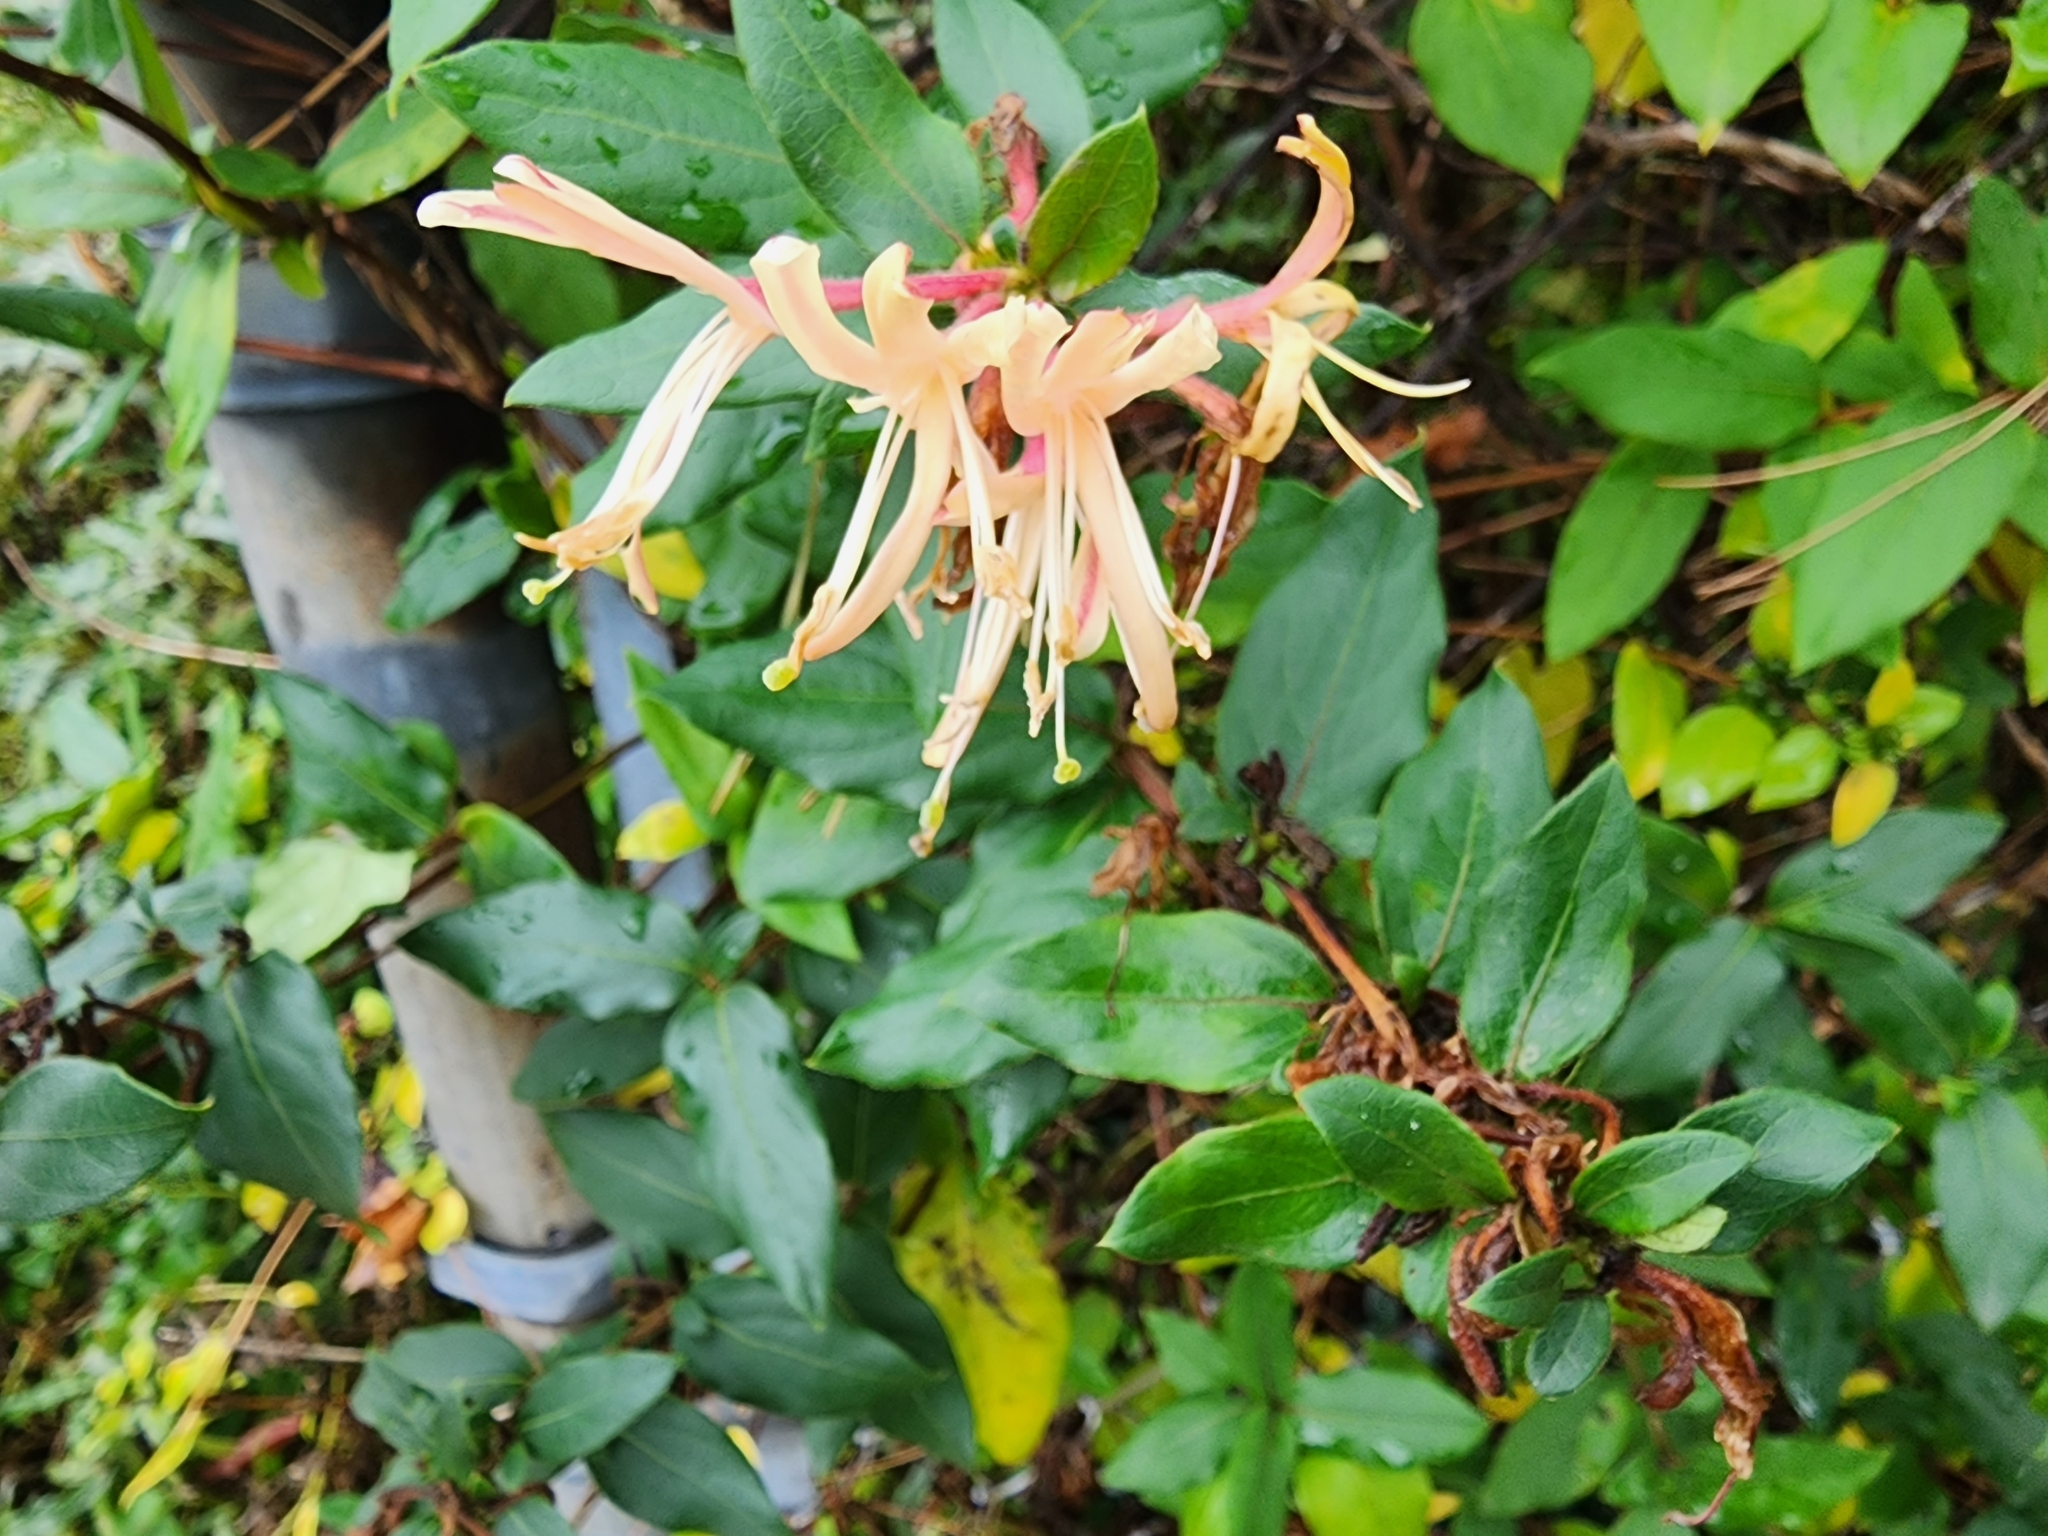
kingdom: Plantae
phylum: Tracheophyta
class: Magnoliopsida
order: Dipsacales
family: Caprifoliaceae
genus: Lonicera
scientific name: Lonicera periclymenum
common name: European honeysuckle
